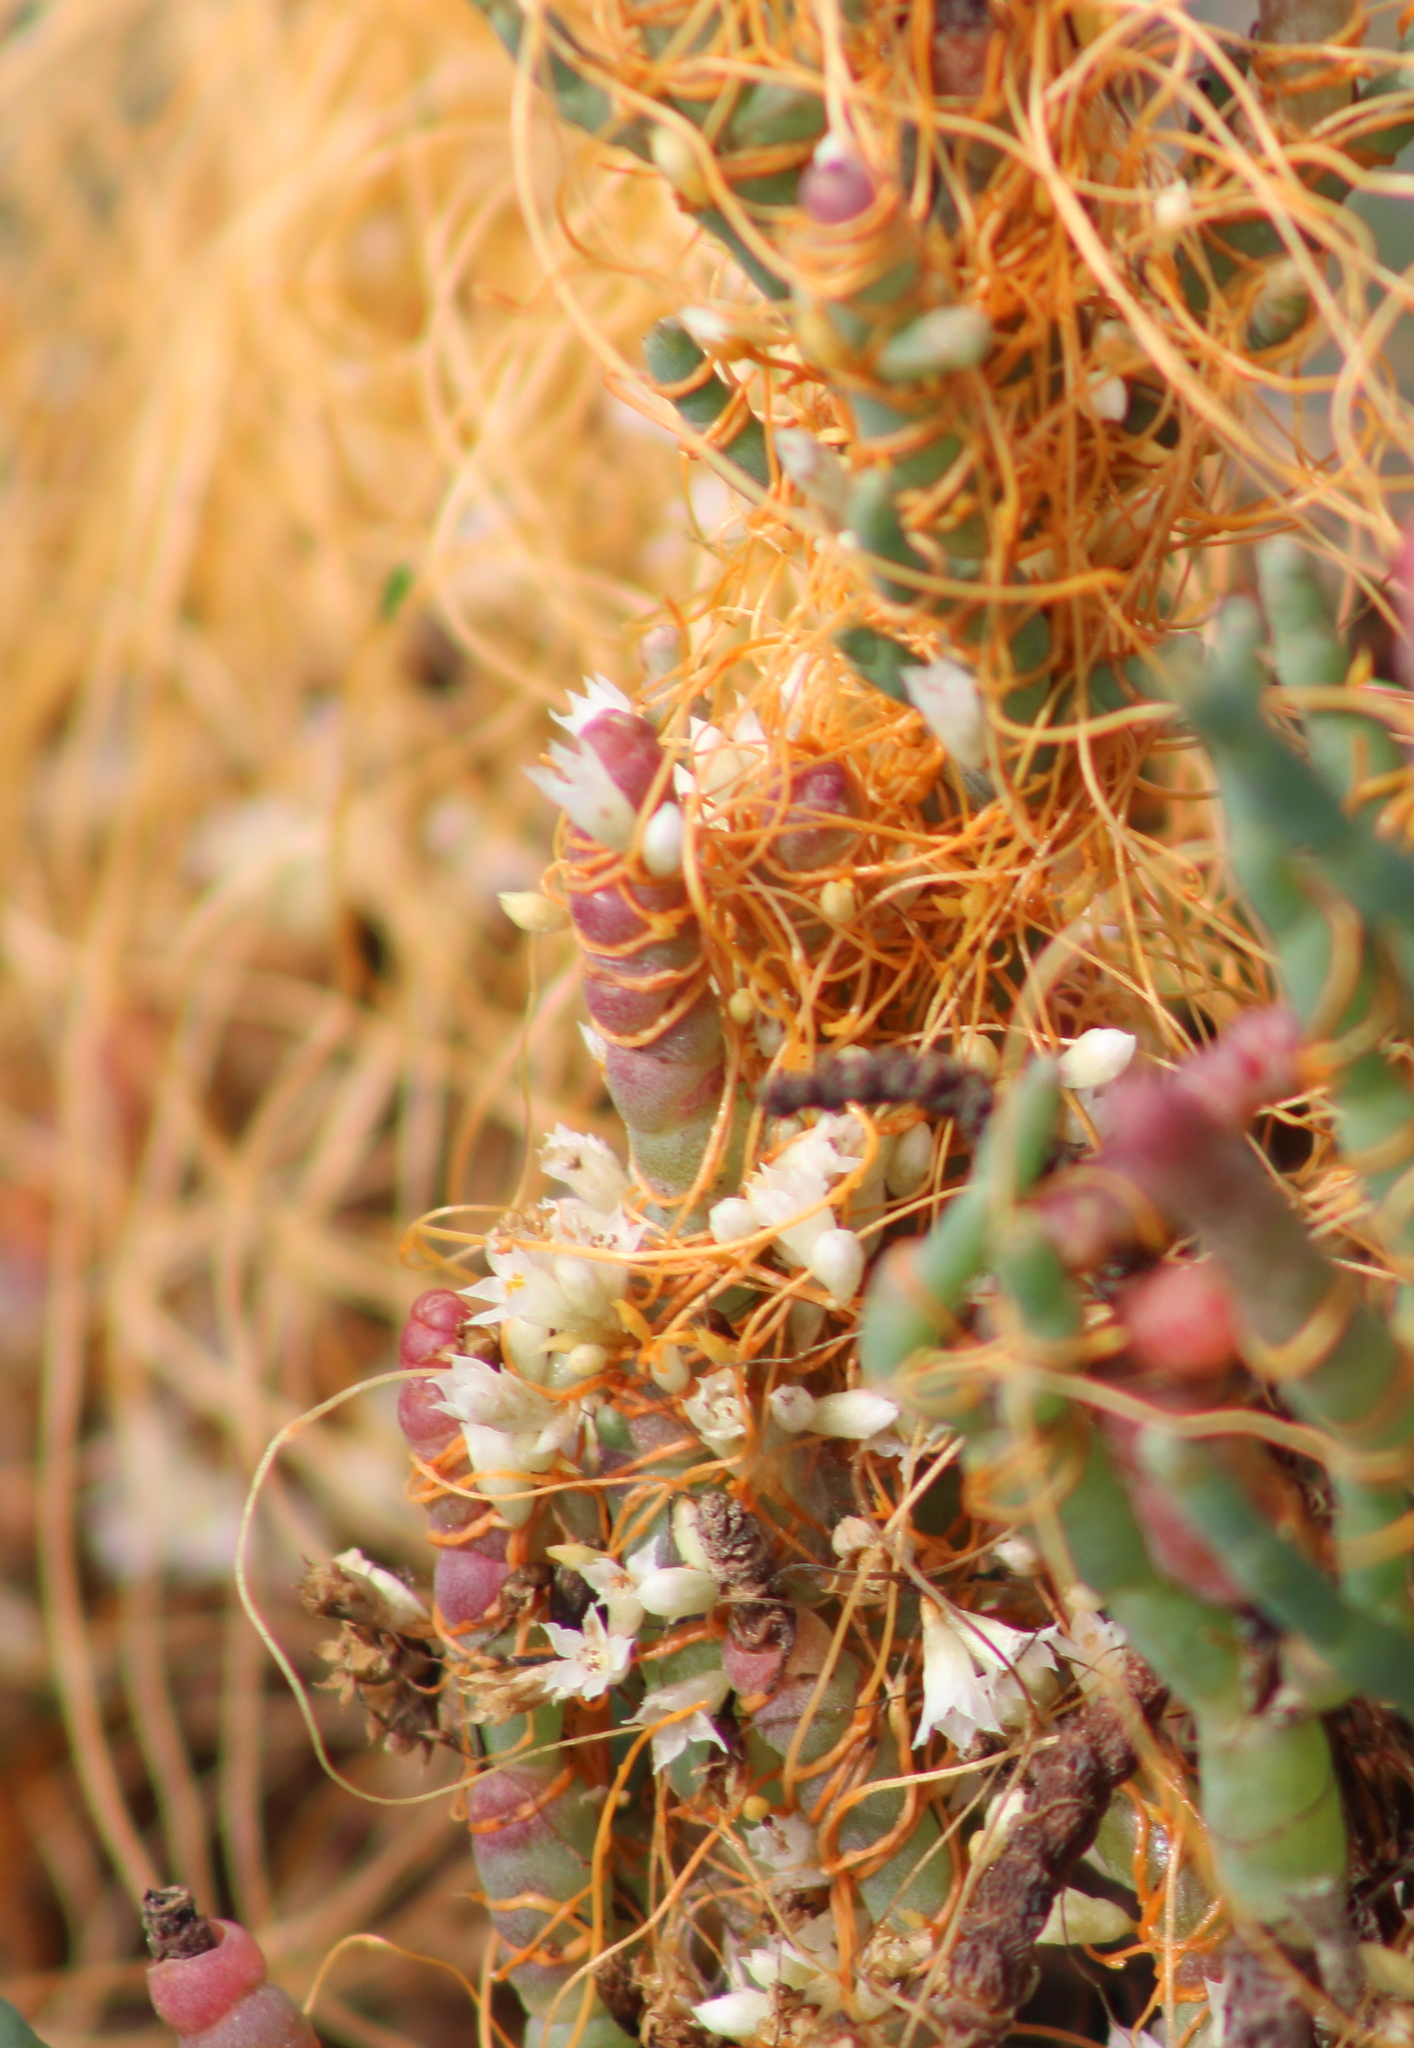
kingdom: Plantae
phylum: Tracheophyta
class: Magnoliopsida
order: Solanales
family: Convolvulaceae
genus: Cuscuta
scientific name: Cuscuta pacifica
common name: Large saltmarsh dodder
